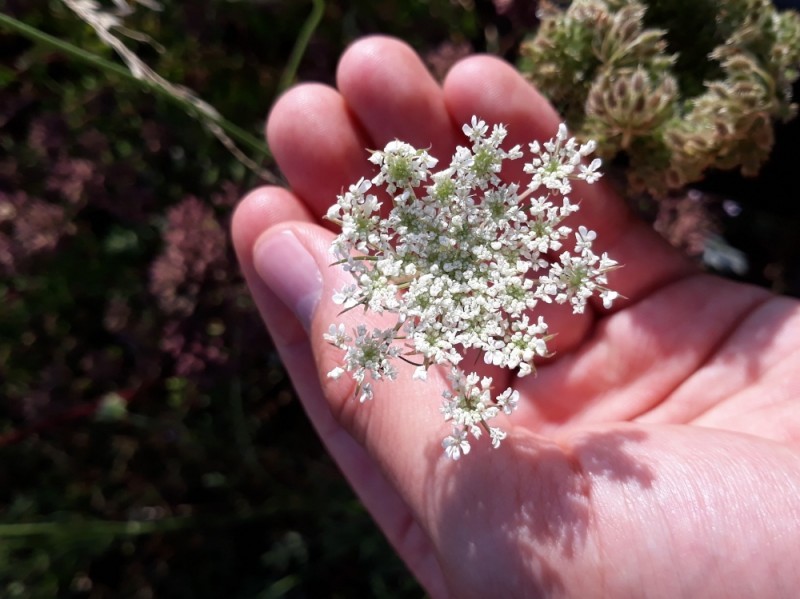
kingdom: Plantae
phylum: Tracheophyta
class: Magnoliopsida
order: Apiales
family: Apiaceae
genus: Daucus
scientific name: Daucus carota
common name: Wild carrot
